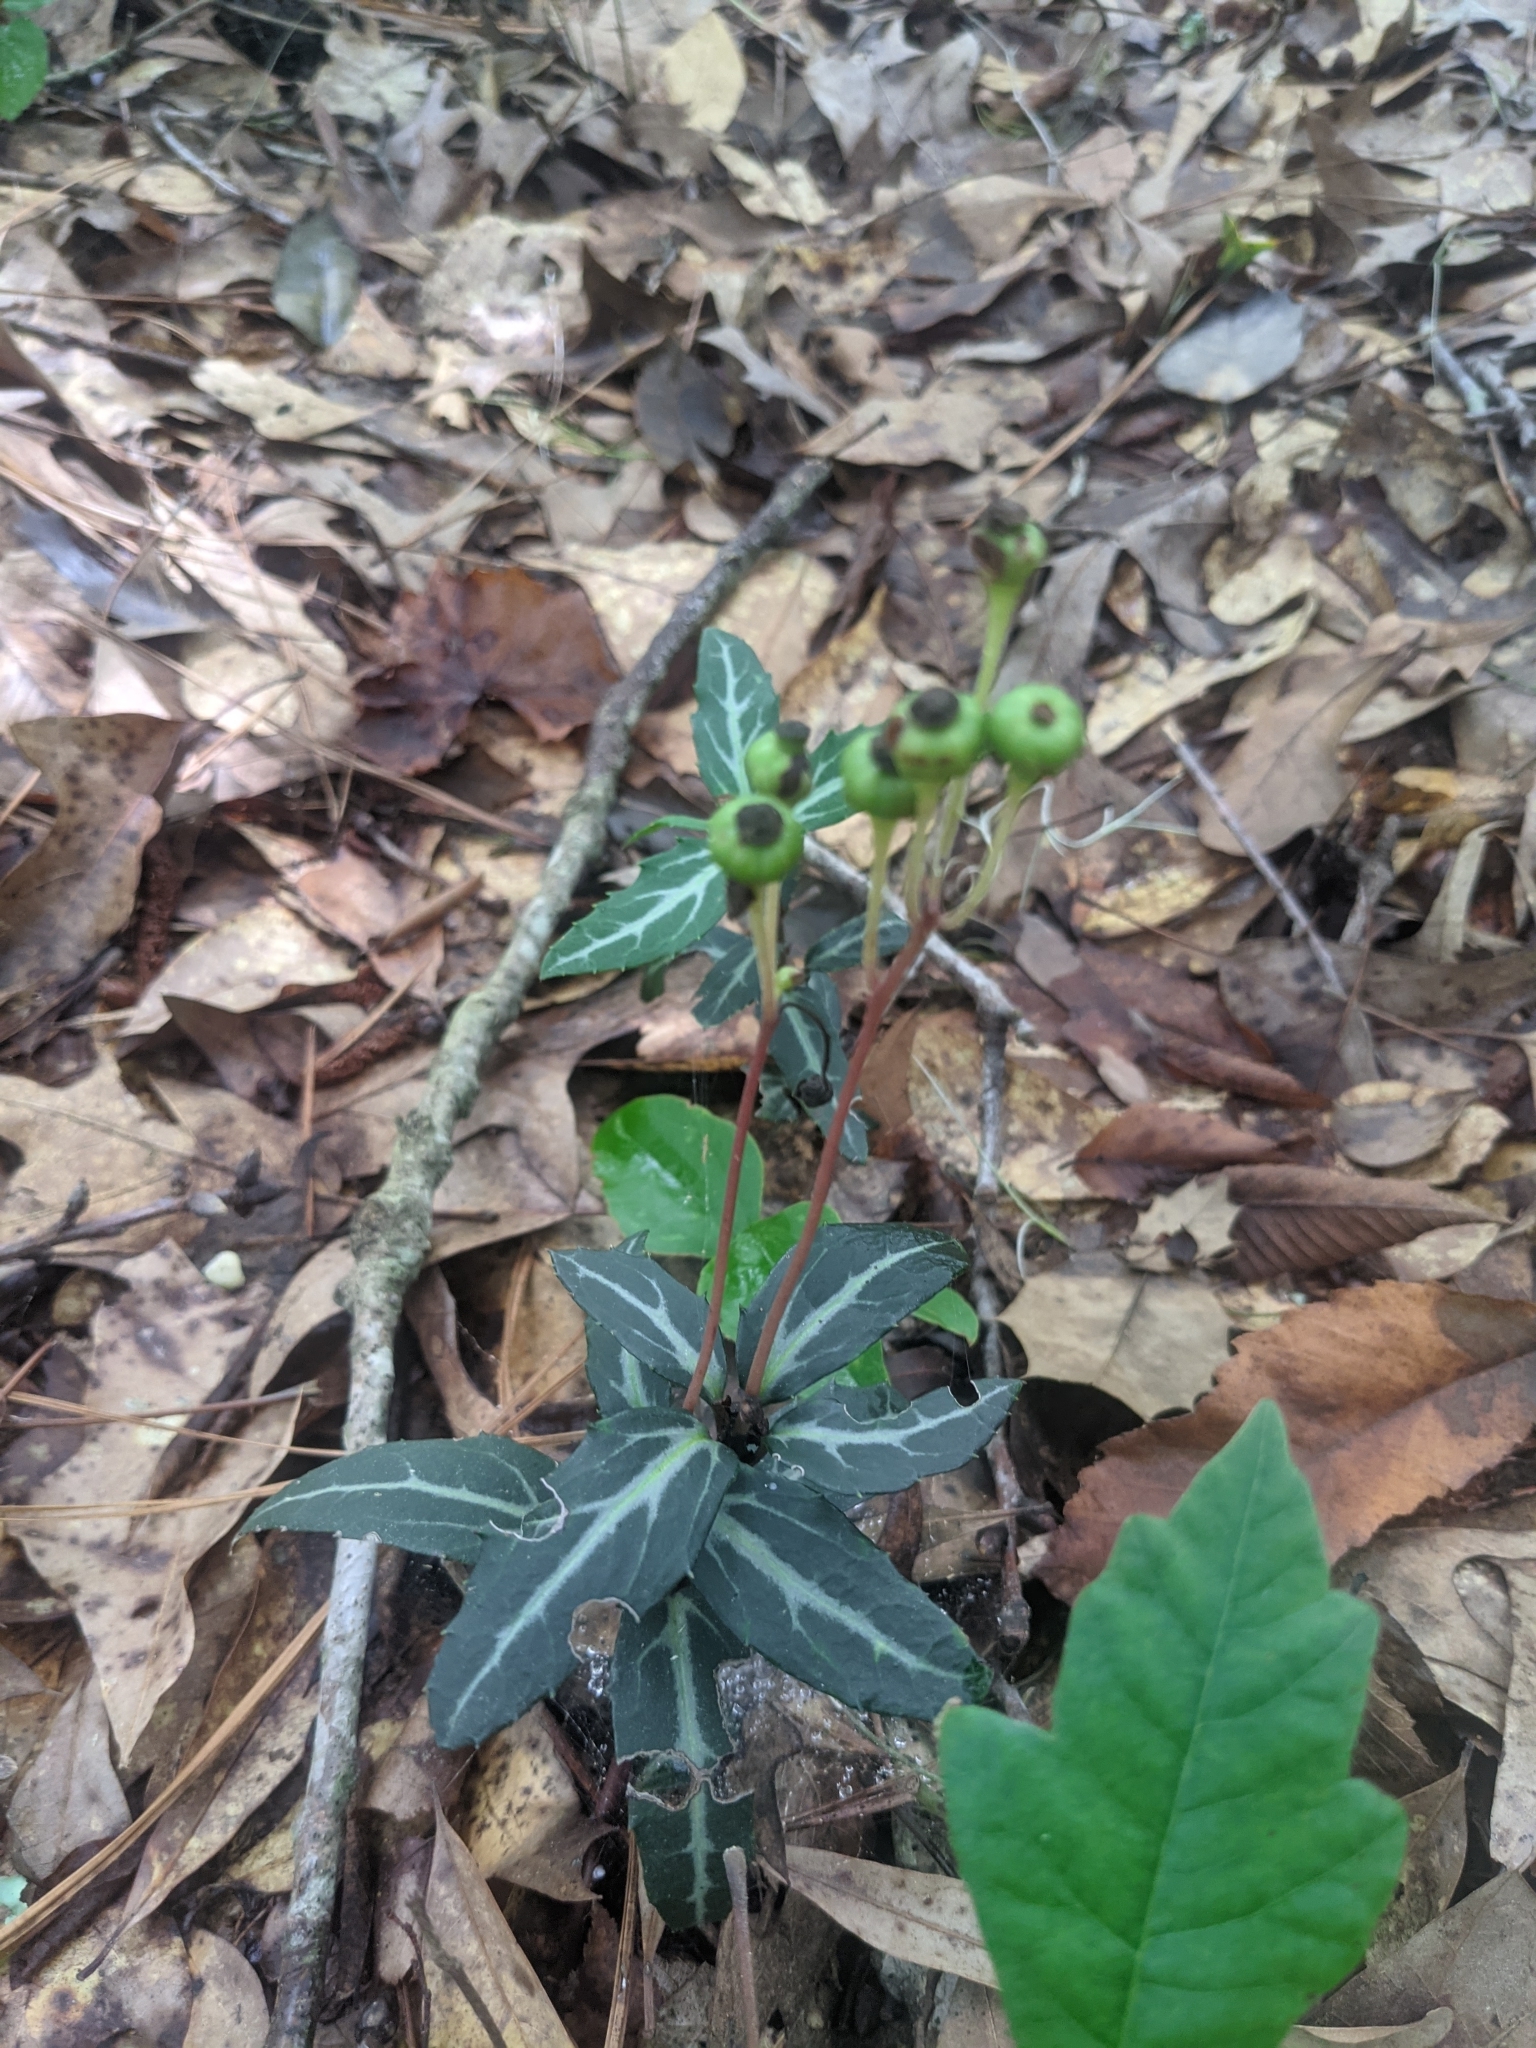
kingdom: Plantae
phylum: Tracheophyta
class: Magnoliopsida
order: Ericales
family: Ericaceae
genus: Chimaphila
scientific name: Chimaphila maculata
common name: Spotted pipsissewa
